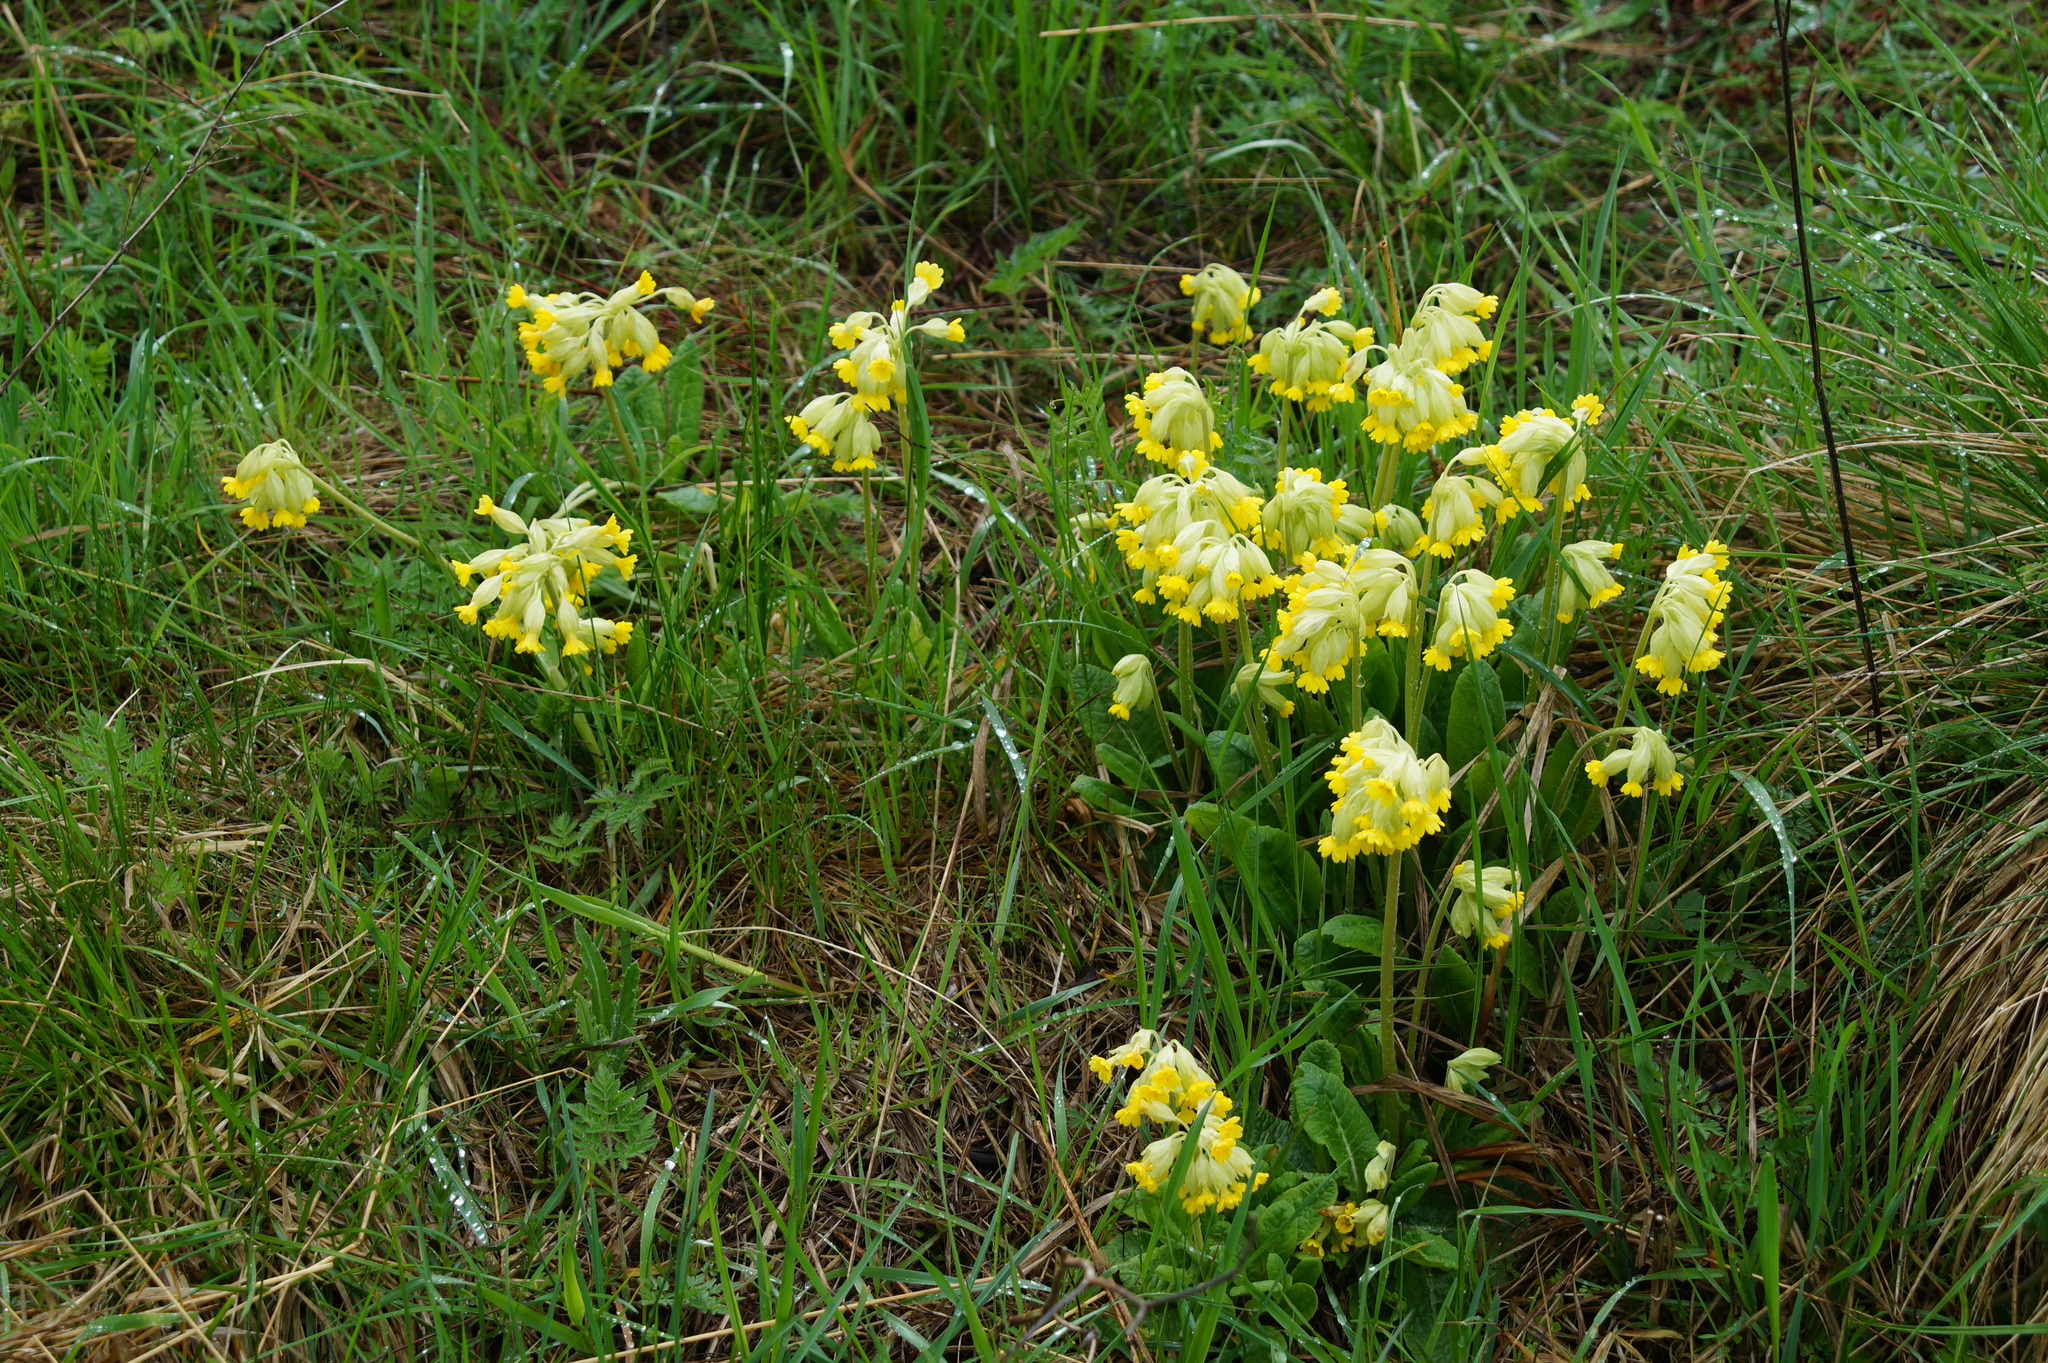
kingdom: Plantae
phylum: Tracheophyta
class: Magnoliopsida
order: Ericales
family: Primulaceae
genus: Primula
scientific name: Primula veris
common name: Cowslip
